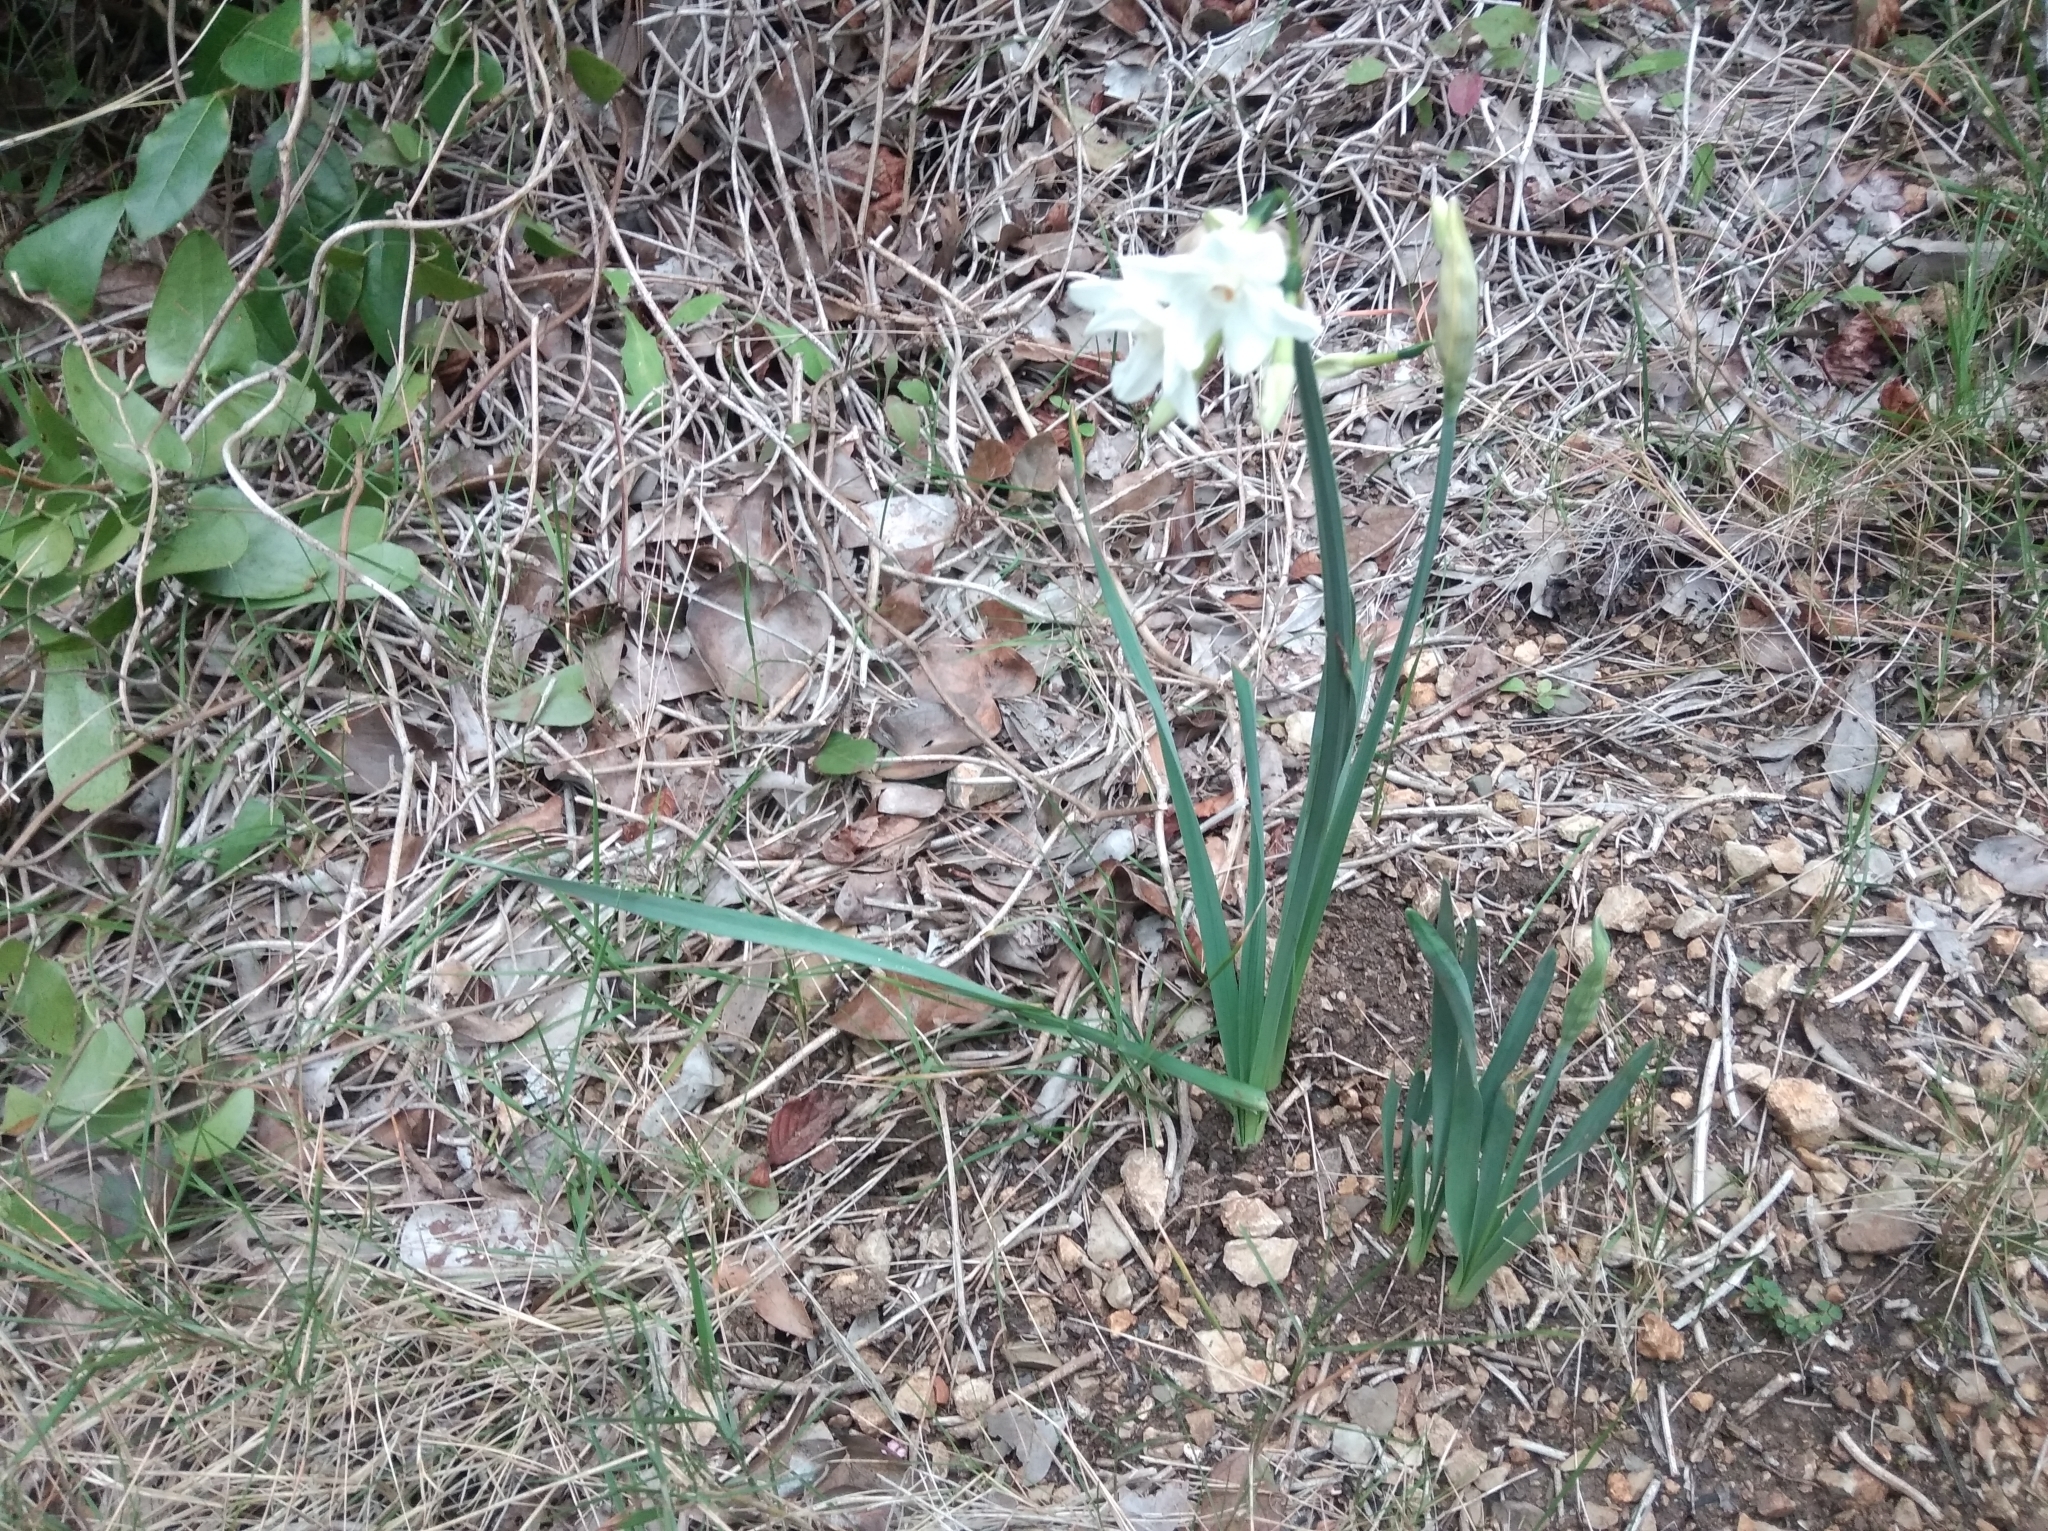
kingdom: Plantae
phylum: Tracheophyta
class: Liliopsida
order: Asparagales
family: Amaryllidaceae
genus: Narcissus
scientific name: Narcissus papyraceus
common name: Paper-white daffodil
